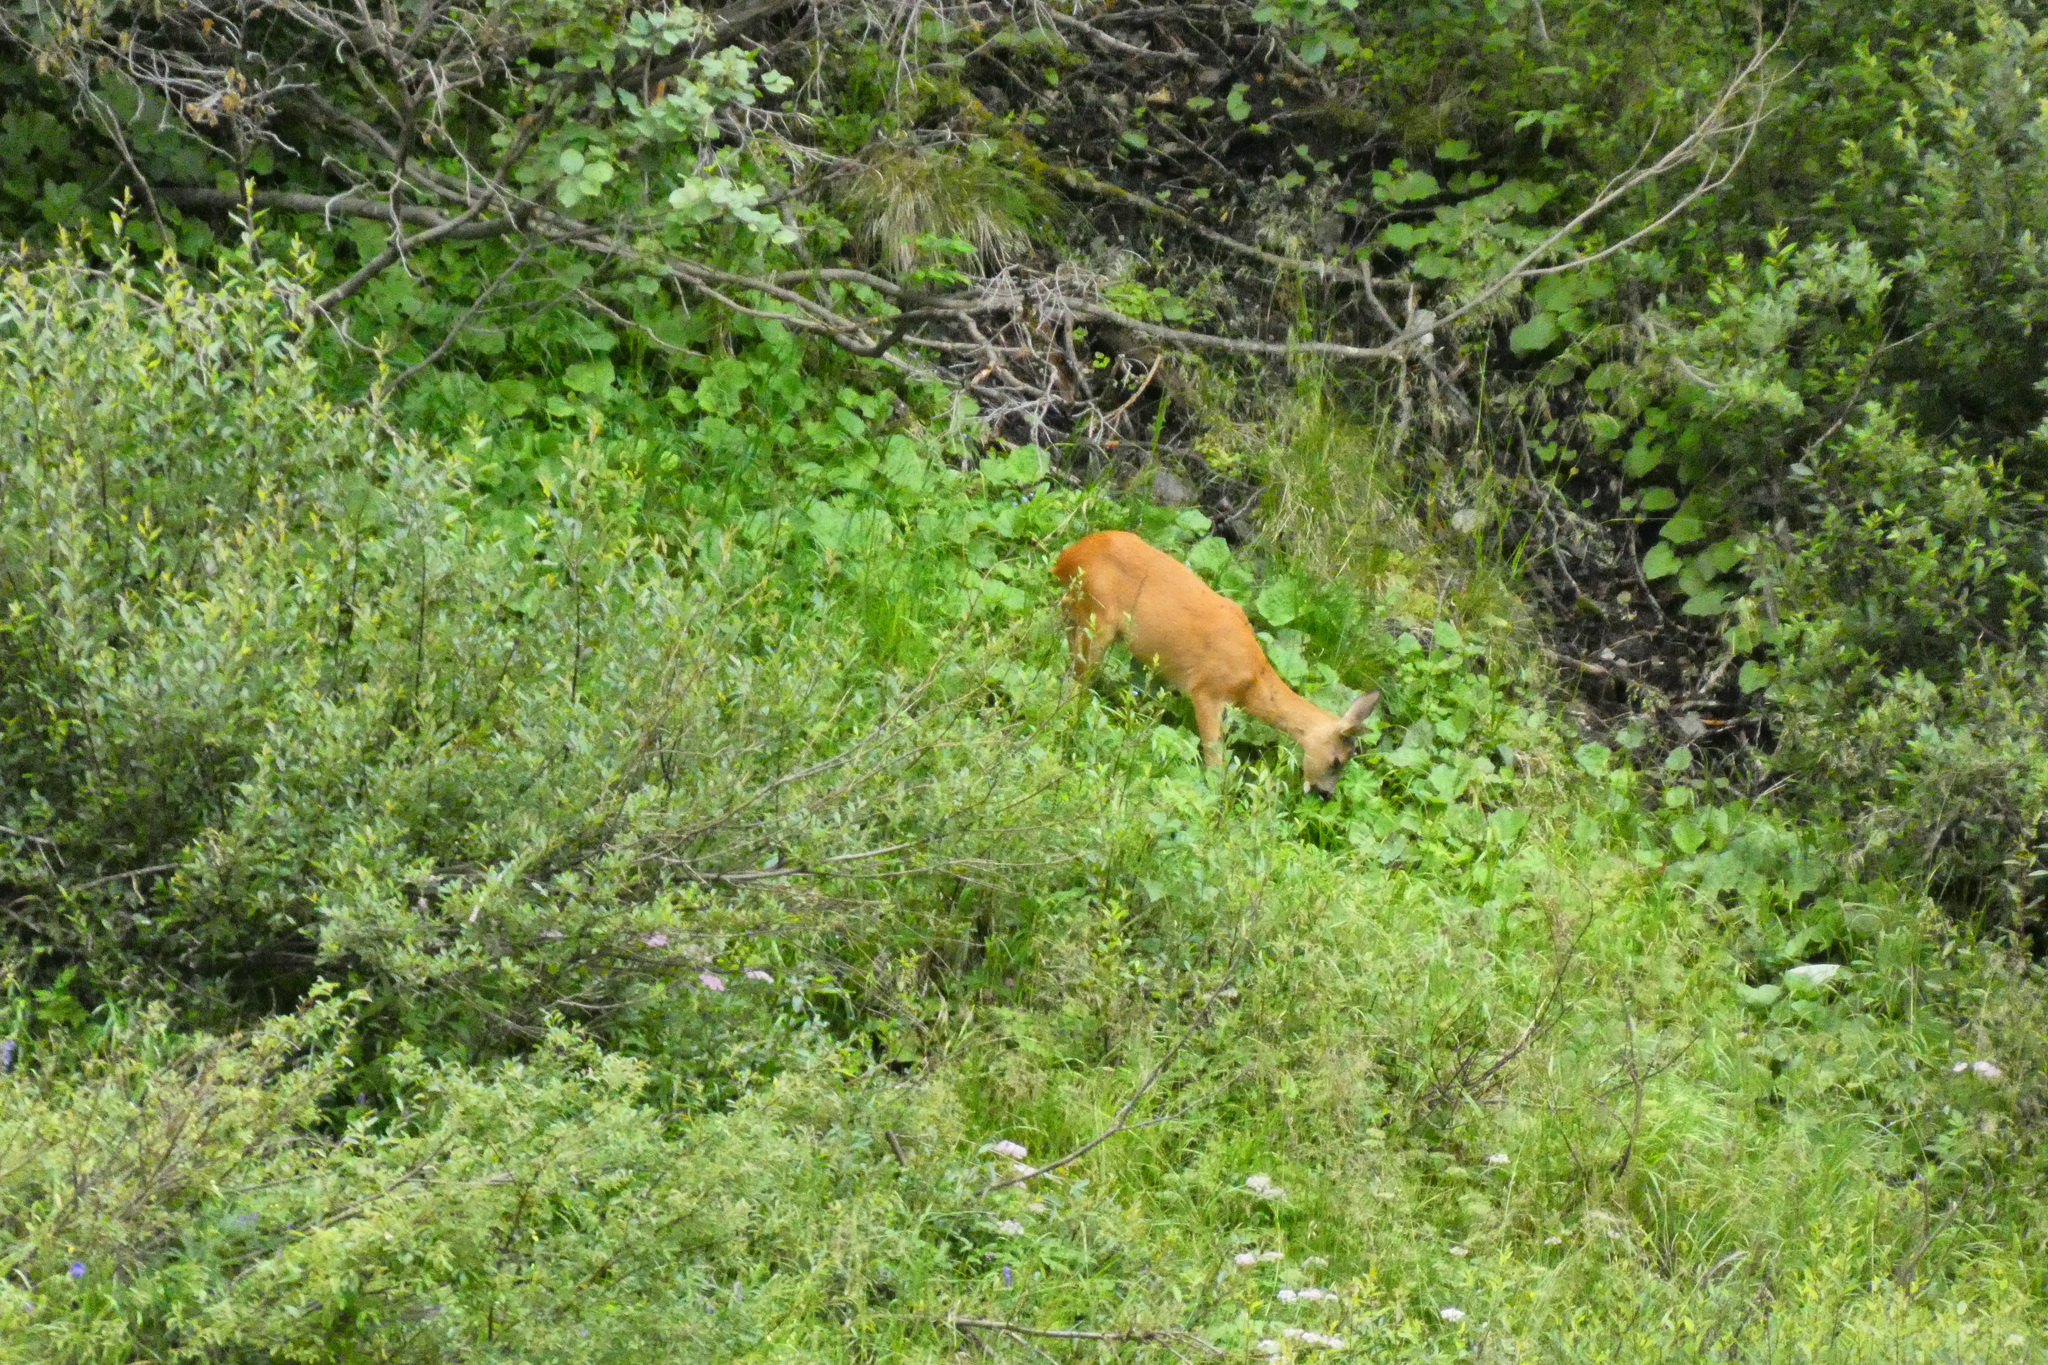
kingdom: Animalia
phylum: Chordata
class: Mammalia
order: Artiodactyla
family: Cervidae
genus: Capreolus
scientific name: Capreolus capreolus
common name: Western roe deer
